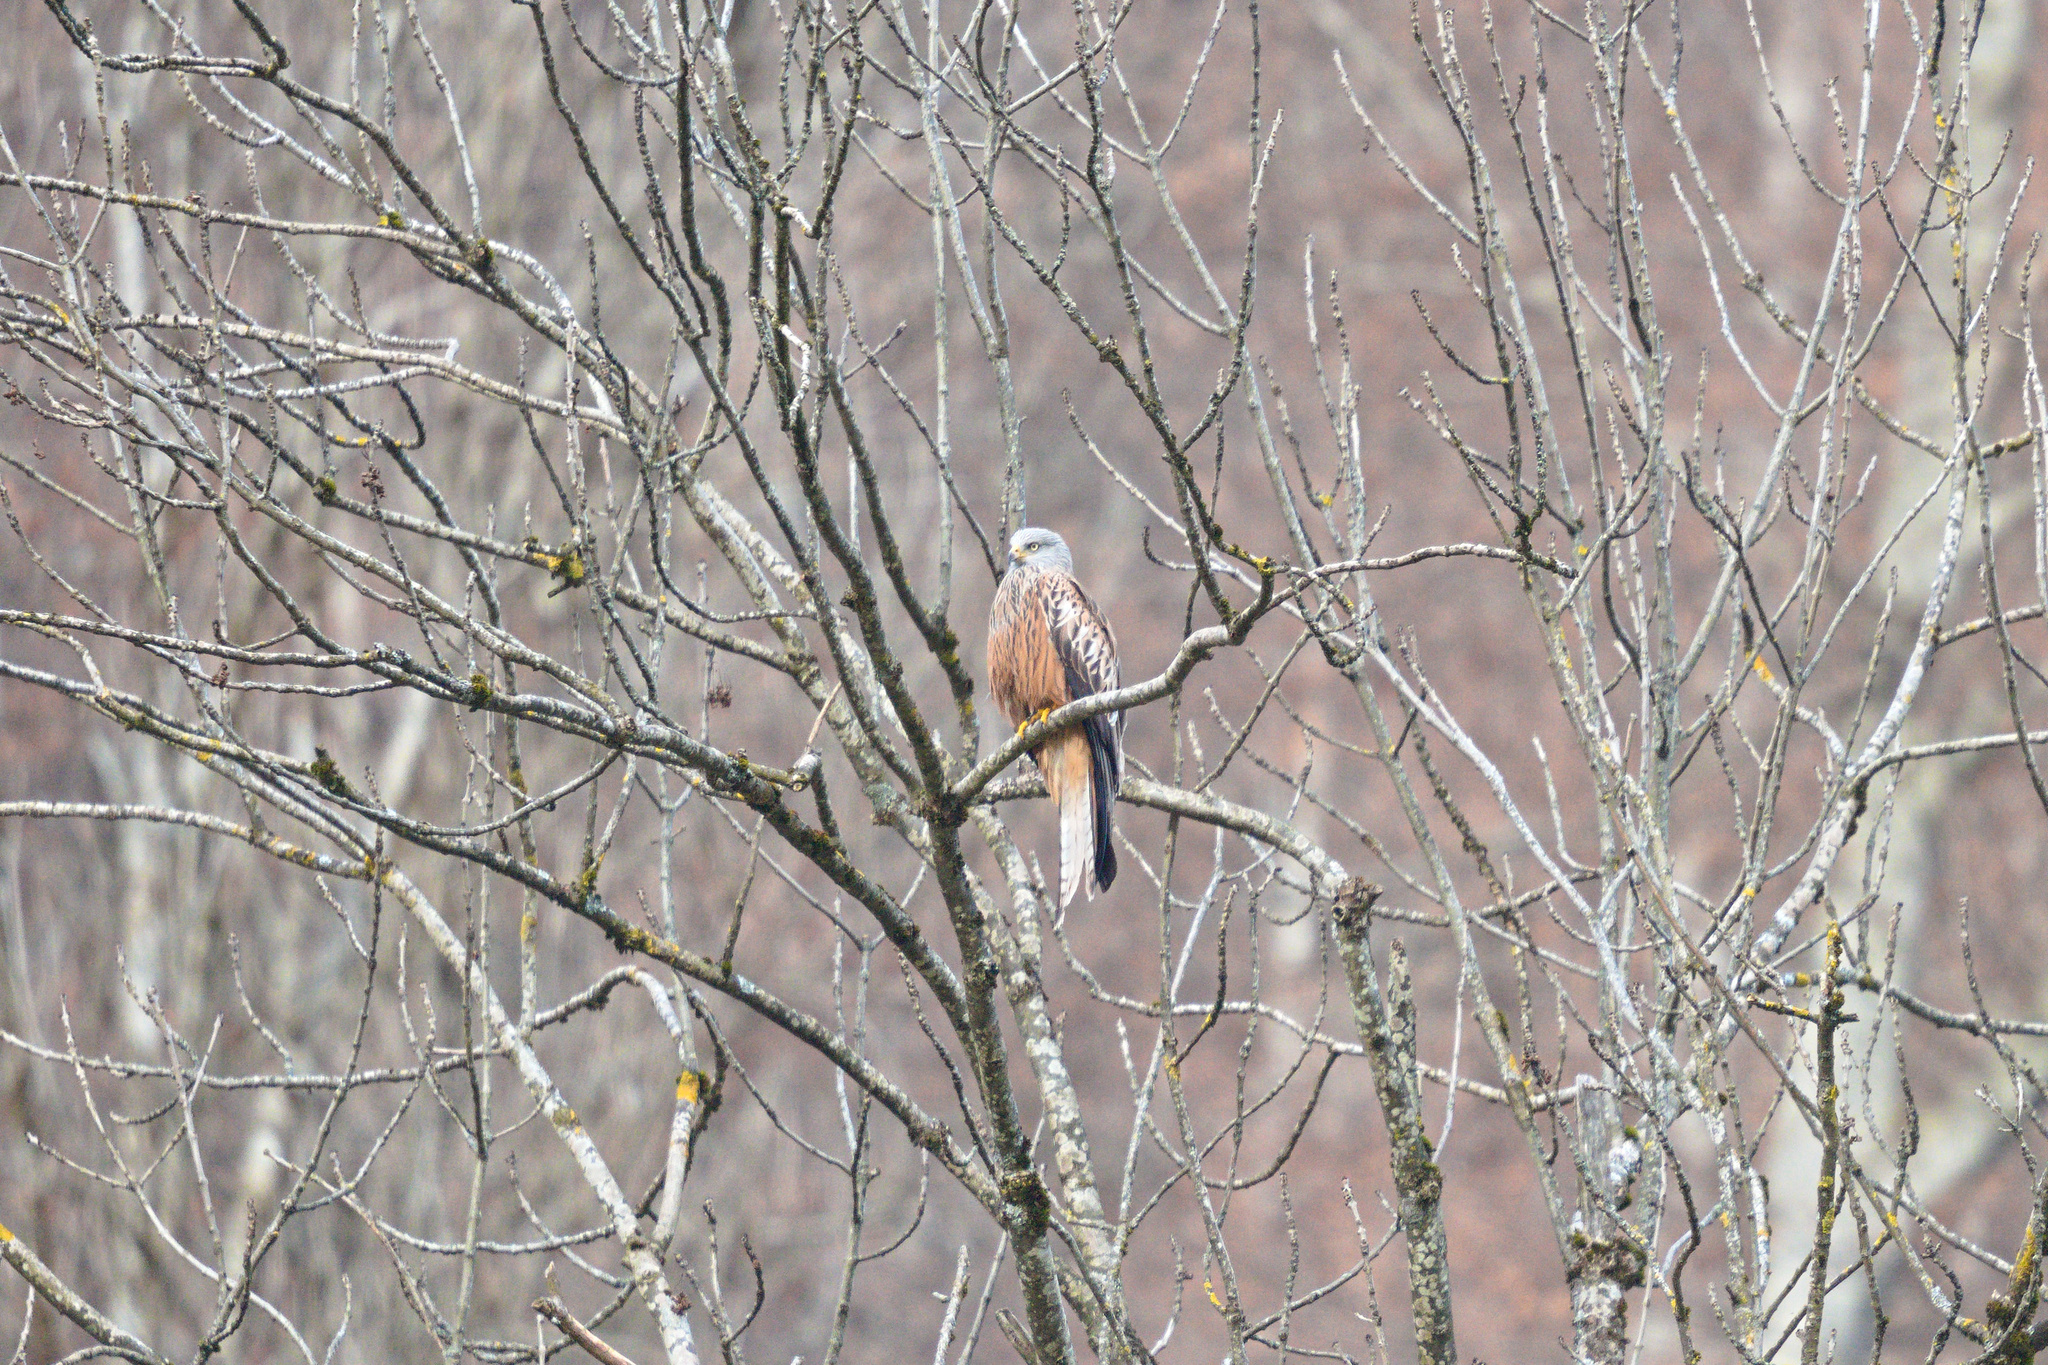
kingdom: Animalia
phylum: Chordata
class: Aves
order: Accipitriformes
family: Accipitridae
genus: Milvus
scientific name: Milvus milvus
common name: Red kite
